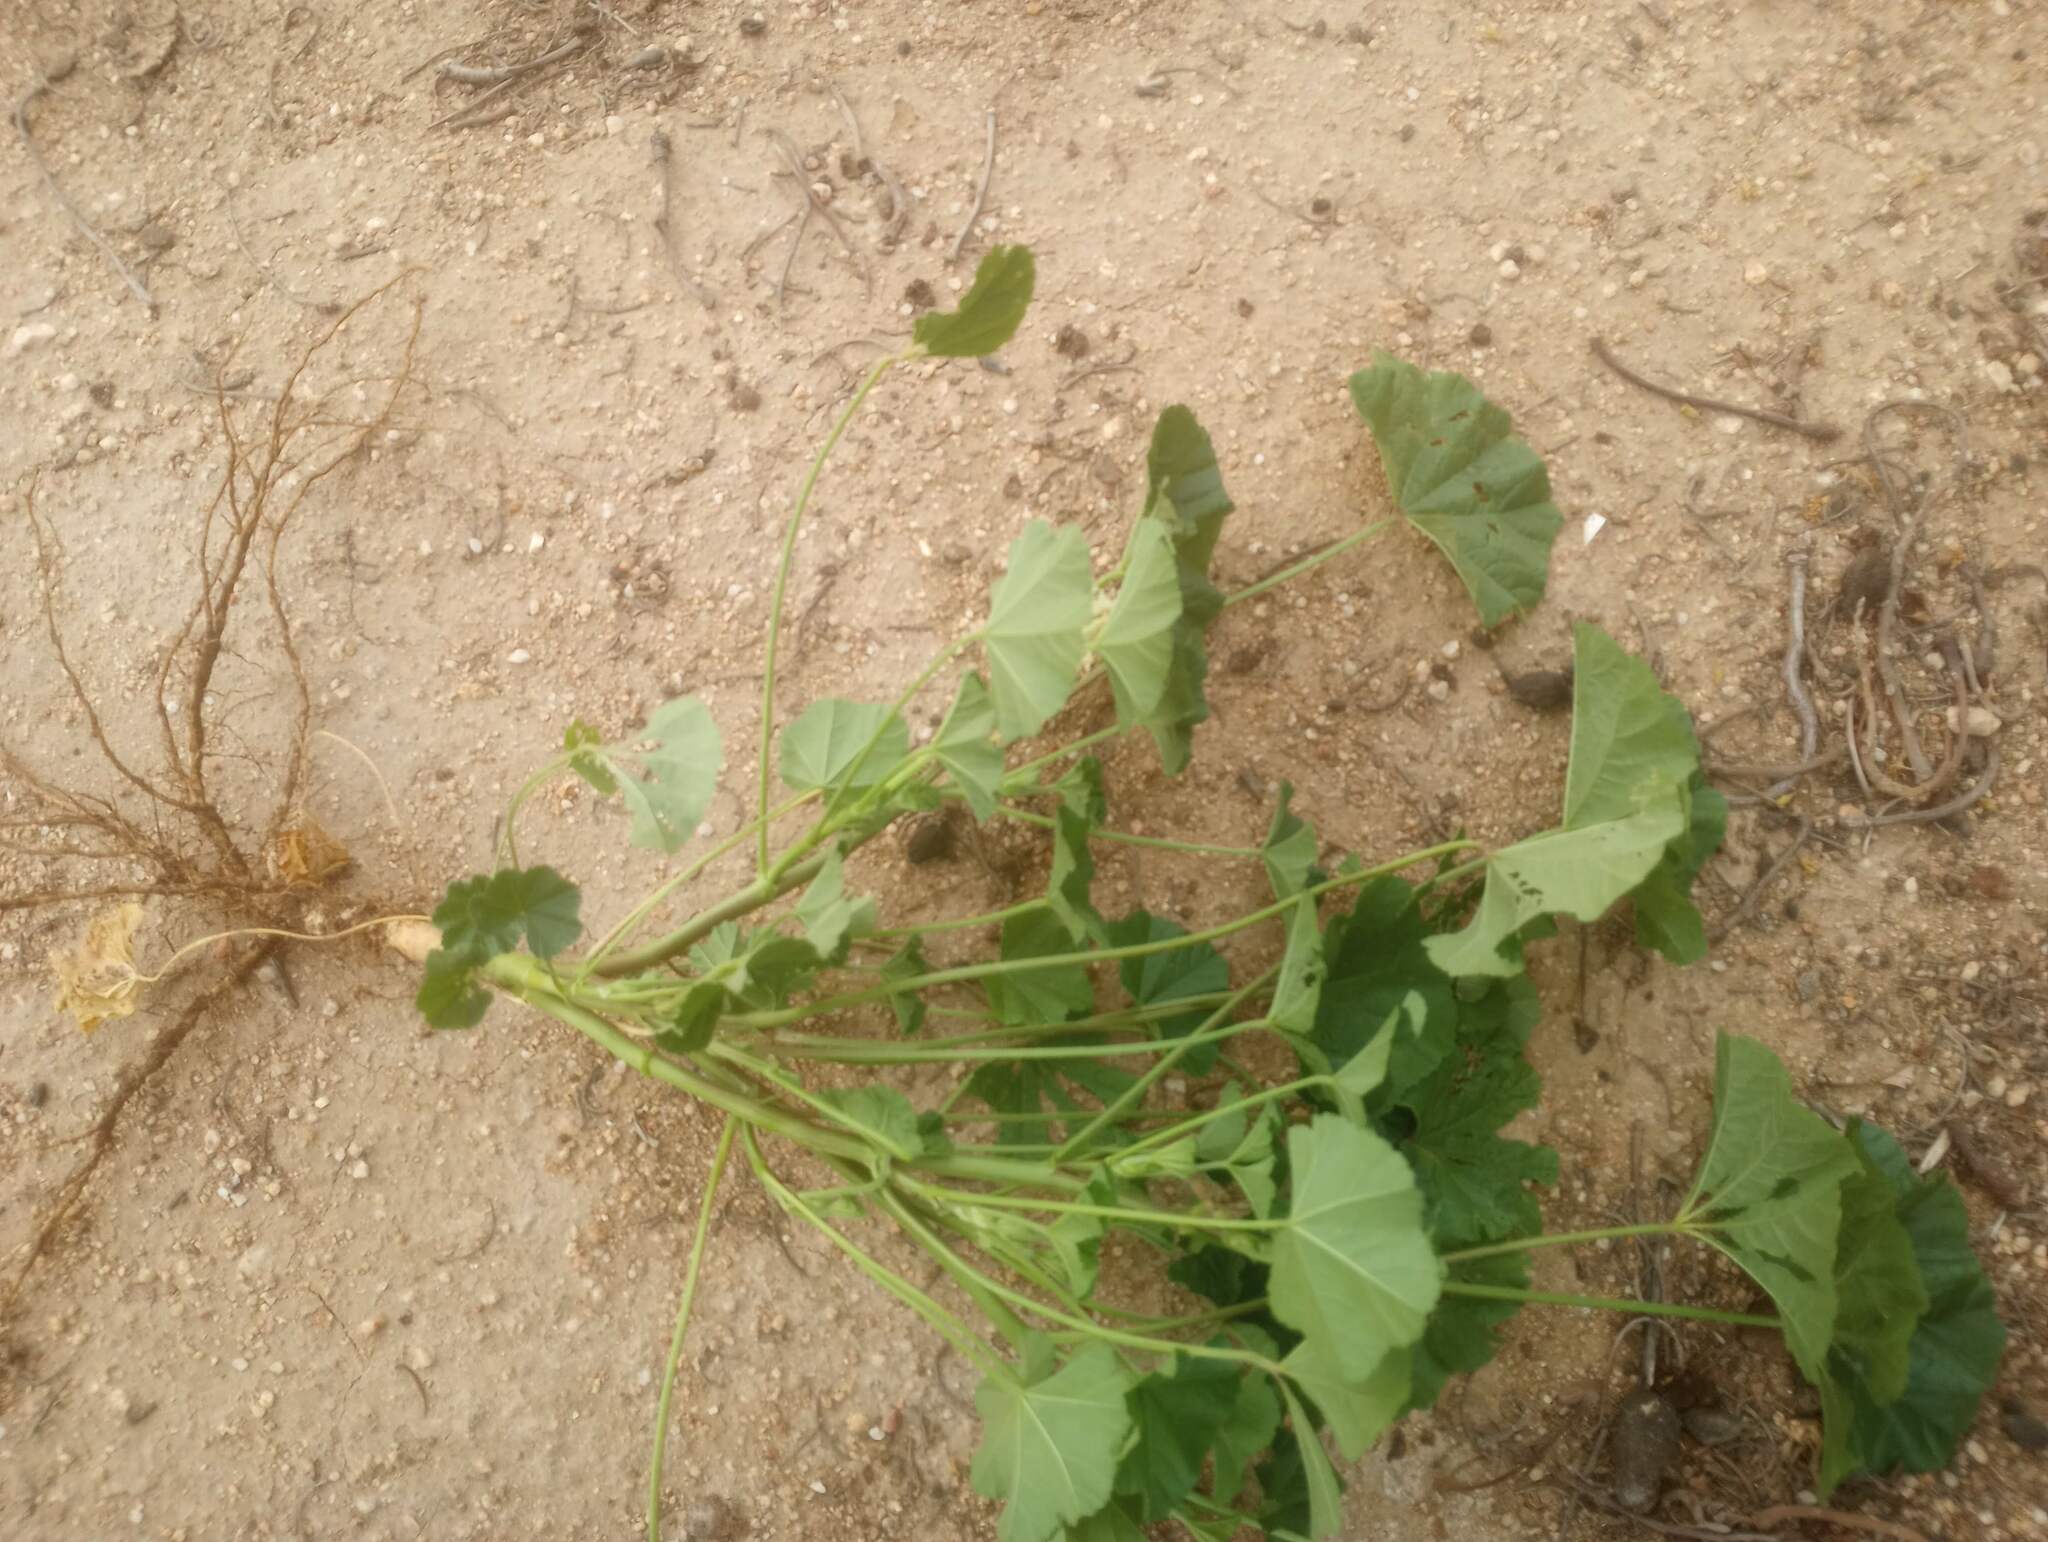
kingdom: Plantae
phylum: Tracheophyta
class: Magnoliopsida
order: Malvales
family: Malvaceae
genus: Malva
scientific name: Malva parviflora
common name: Least mallow
